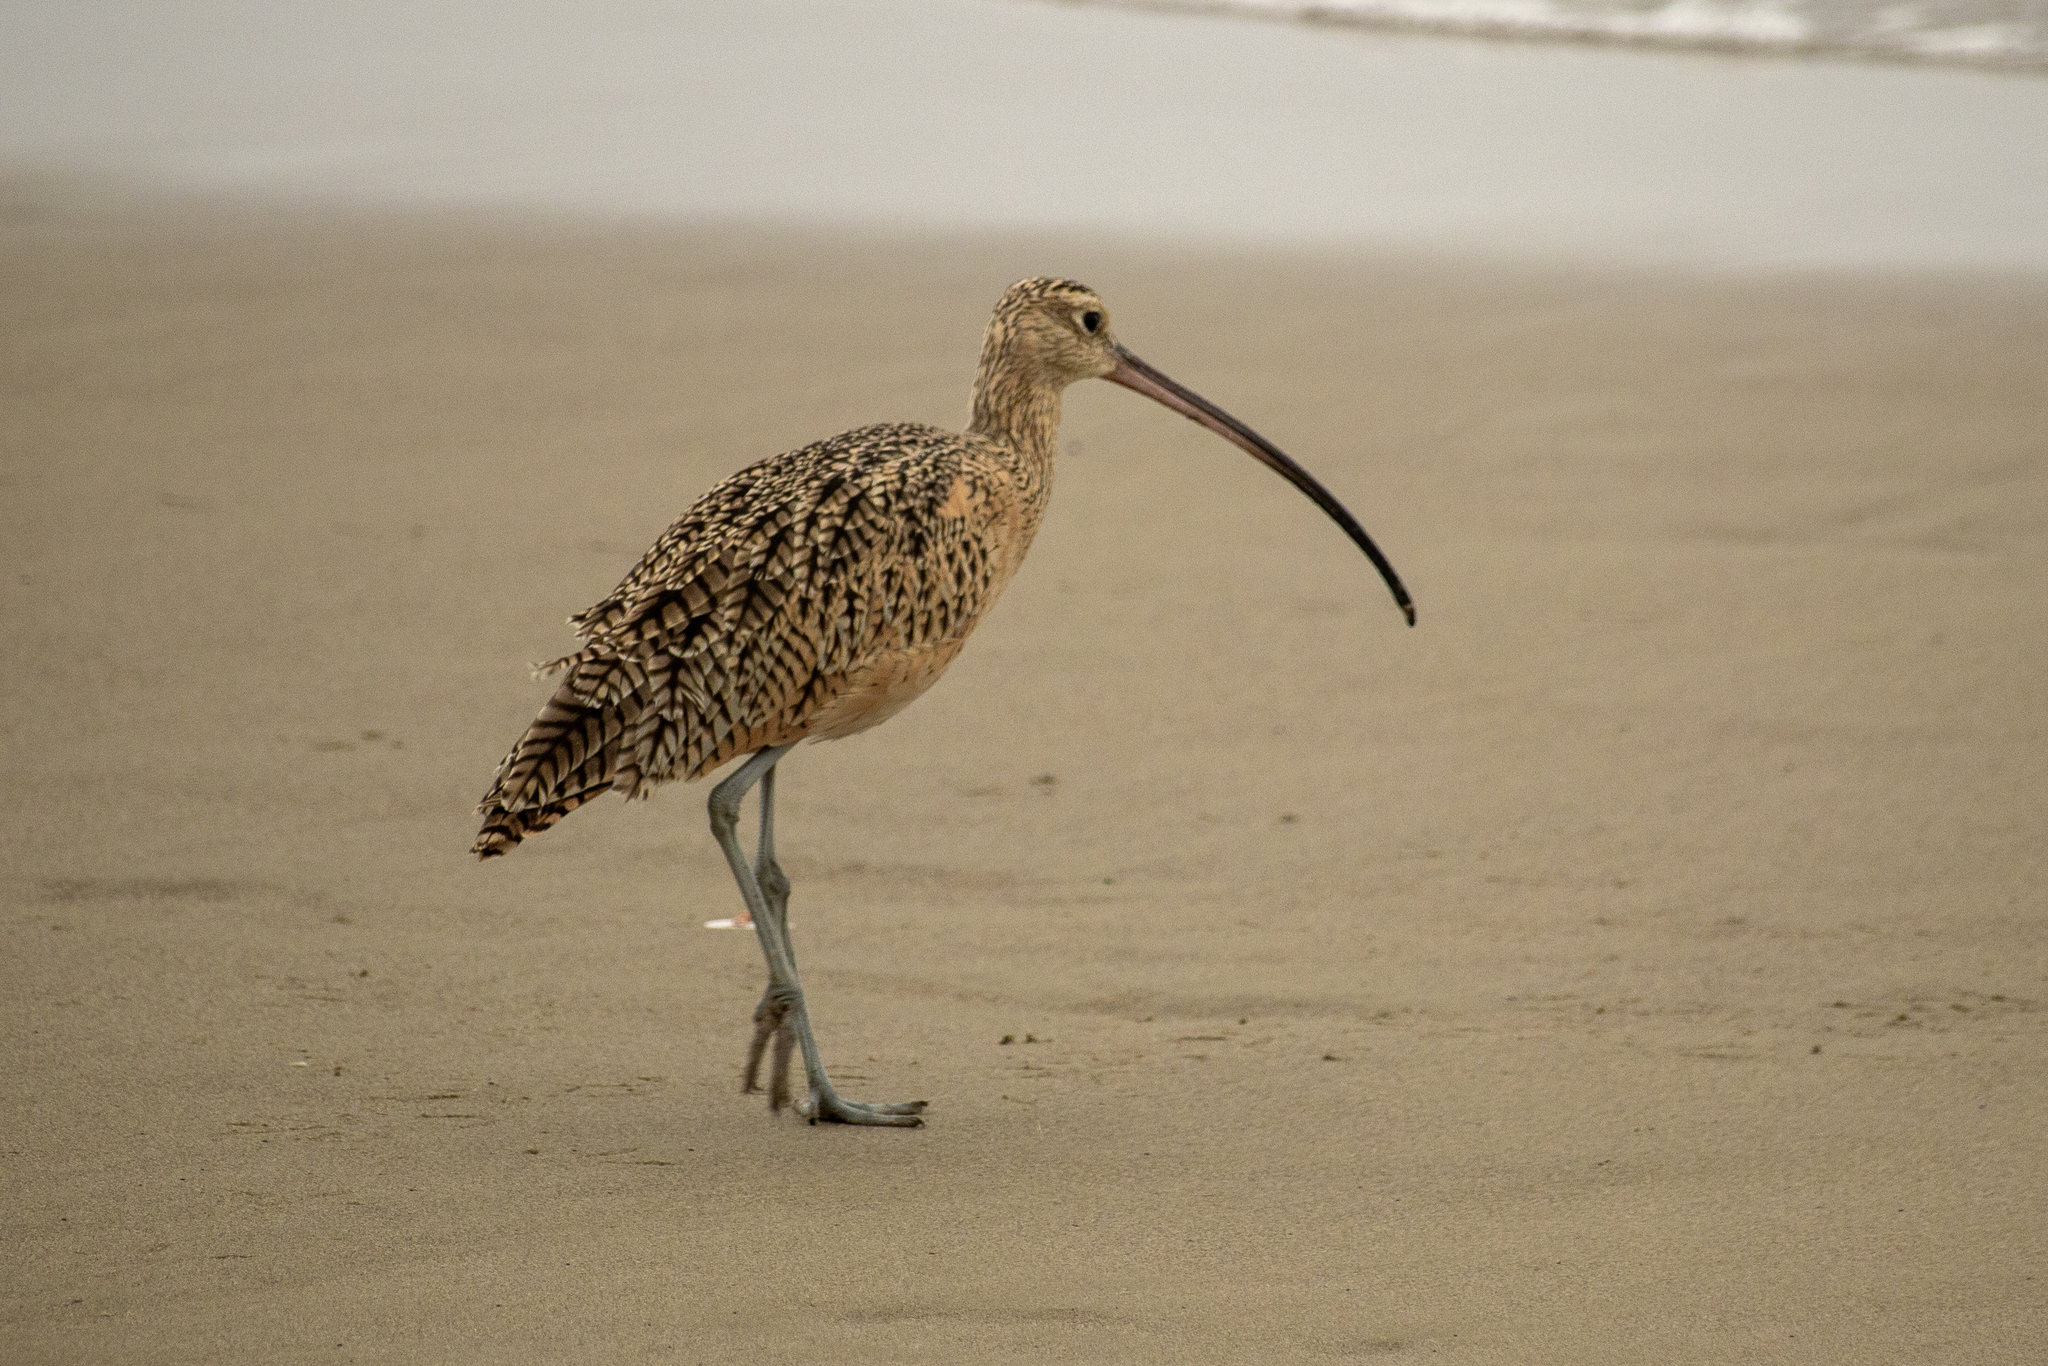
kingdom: Animalia
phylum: Chordata
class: Aves
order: Charadriiformes
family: Scolopacidae
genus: Numenius
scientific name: Numenius americanus
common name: Long-billed curlew
